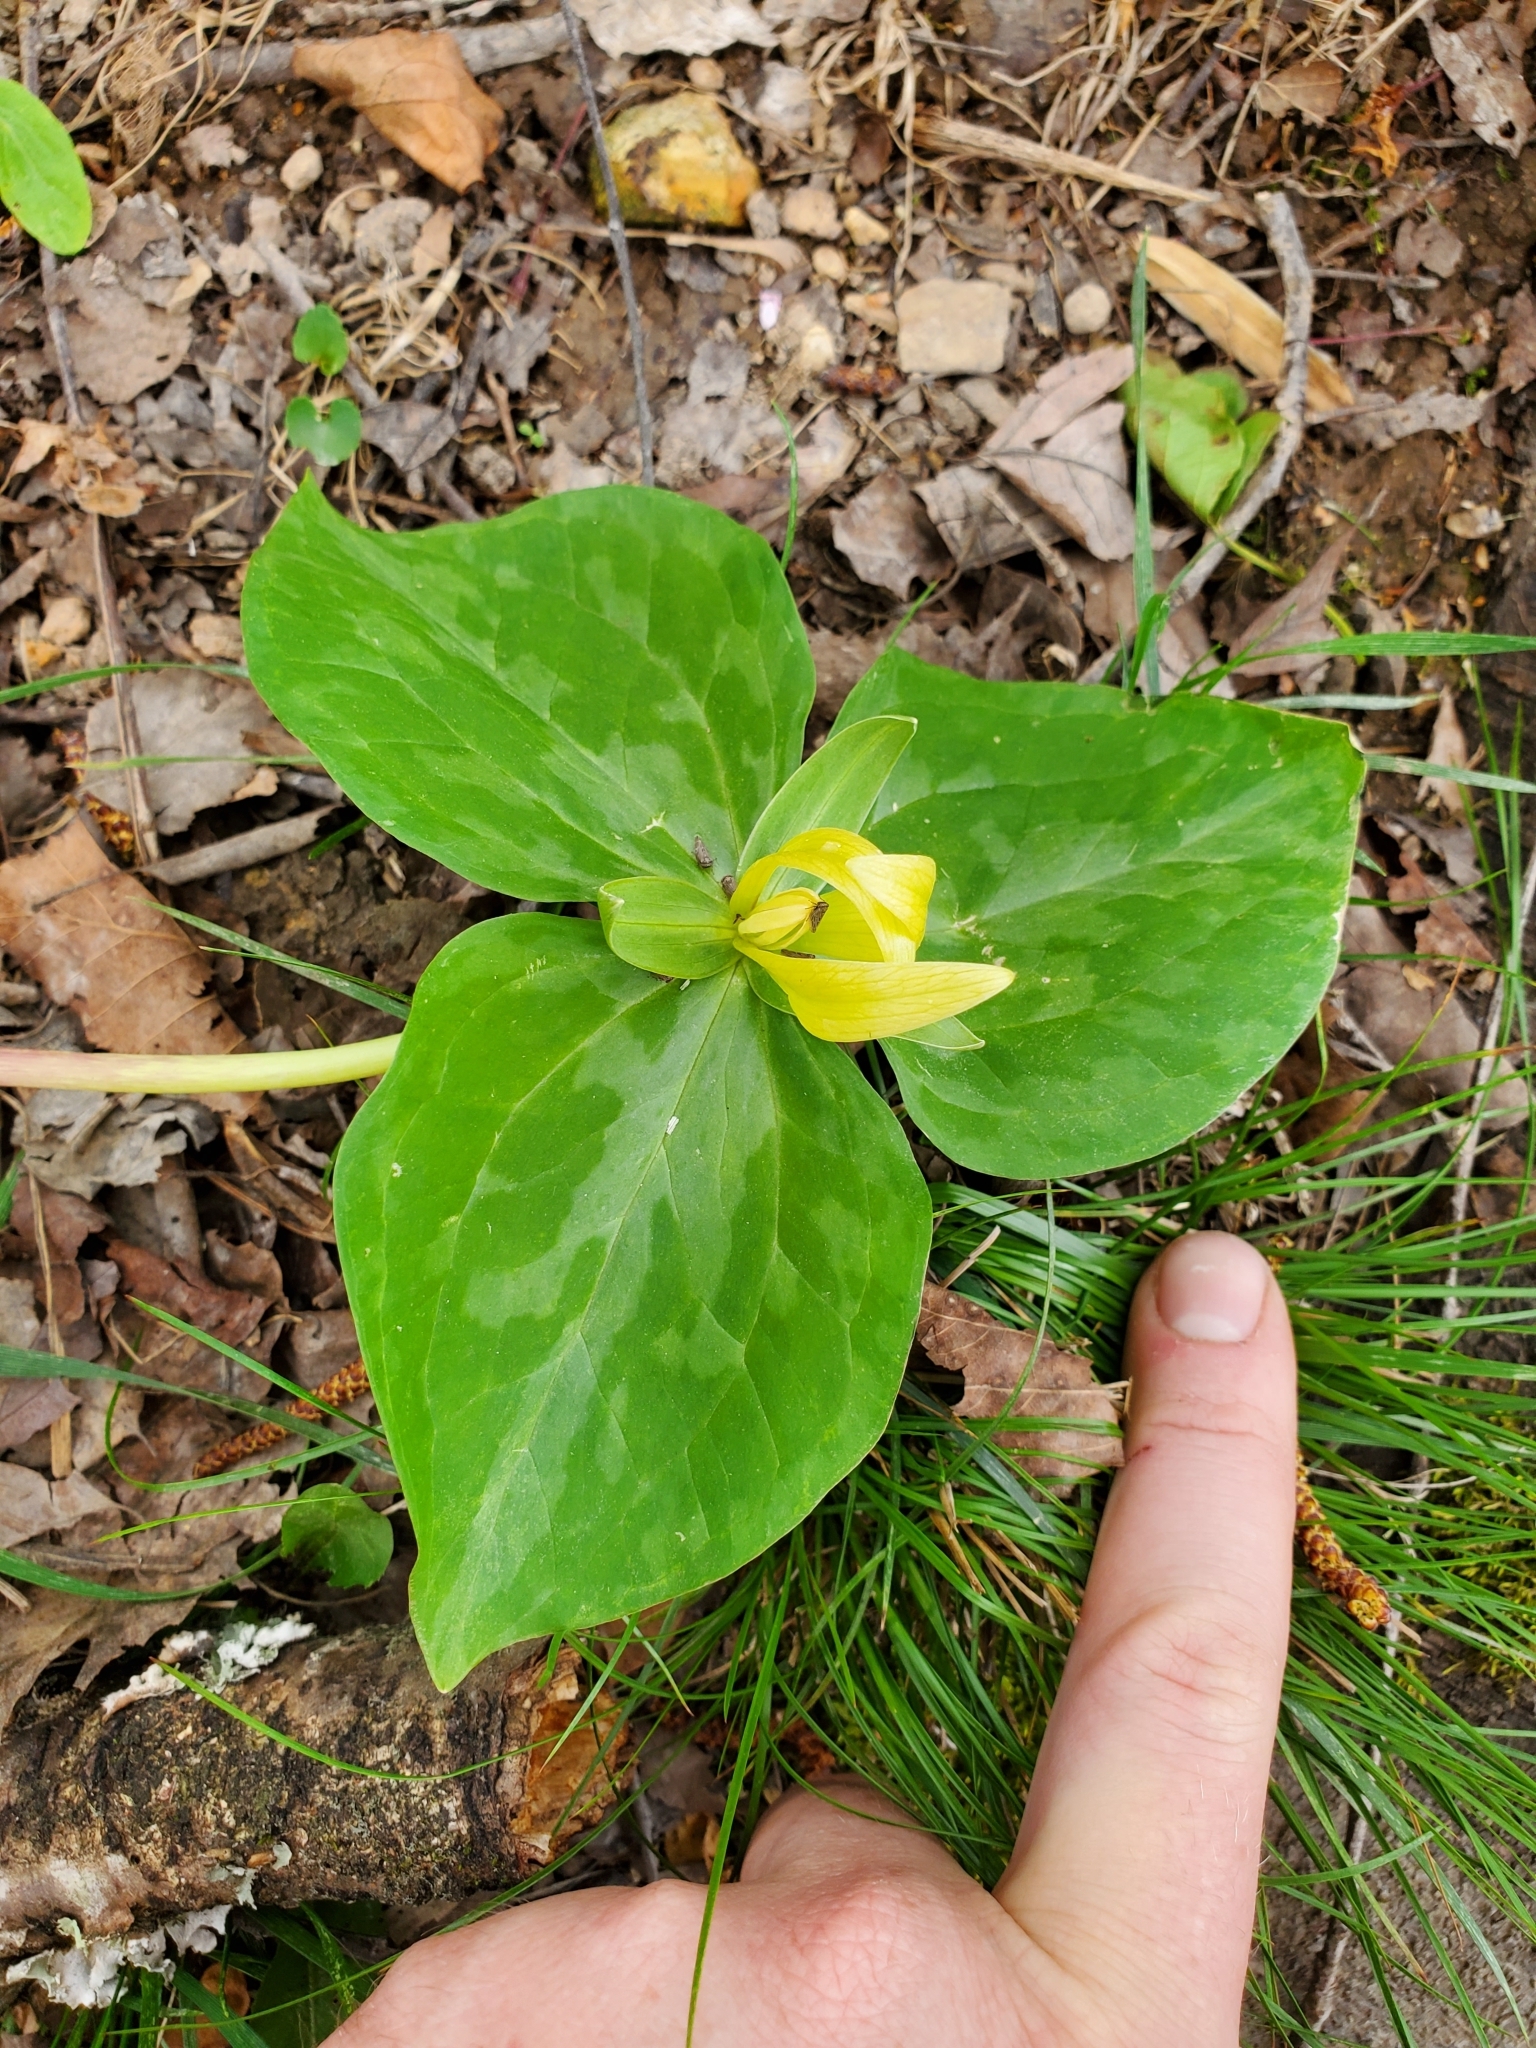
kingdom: Plantae
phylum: Tracheophyta
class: Liliopsida
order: Liliales
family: Melanthiaceae
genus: Trillium
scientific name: Trillium luteum
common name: Wax trillium
